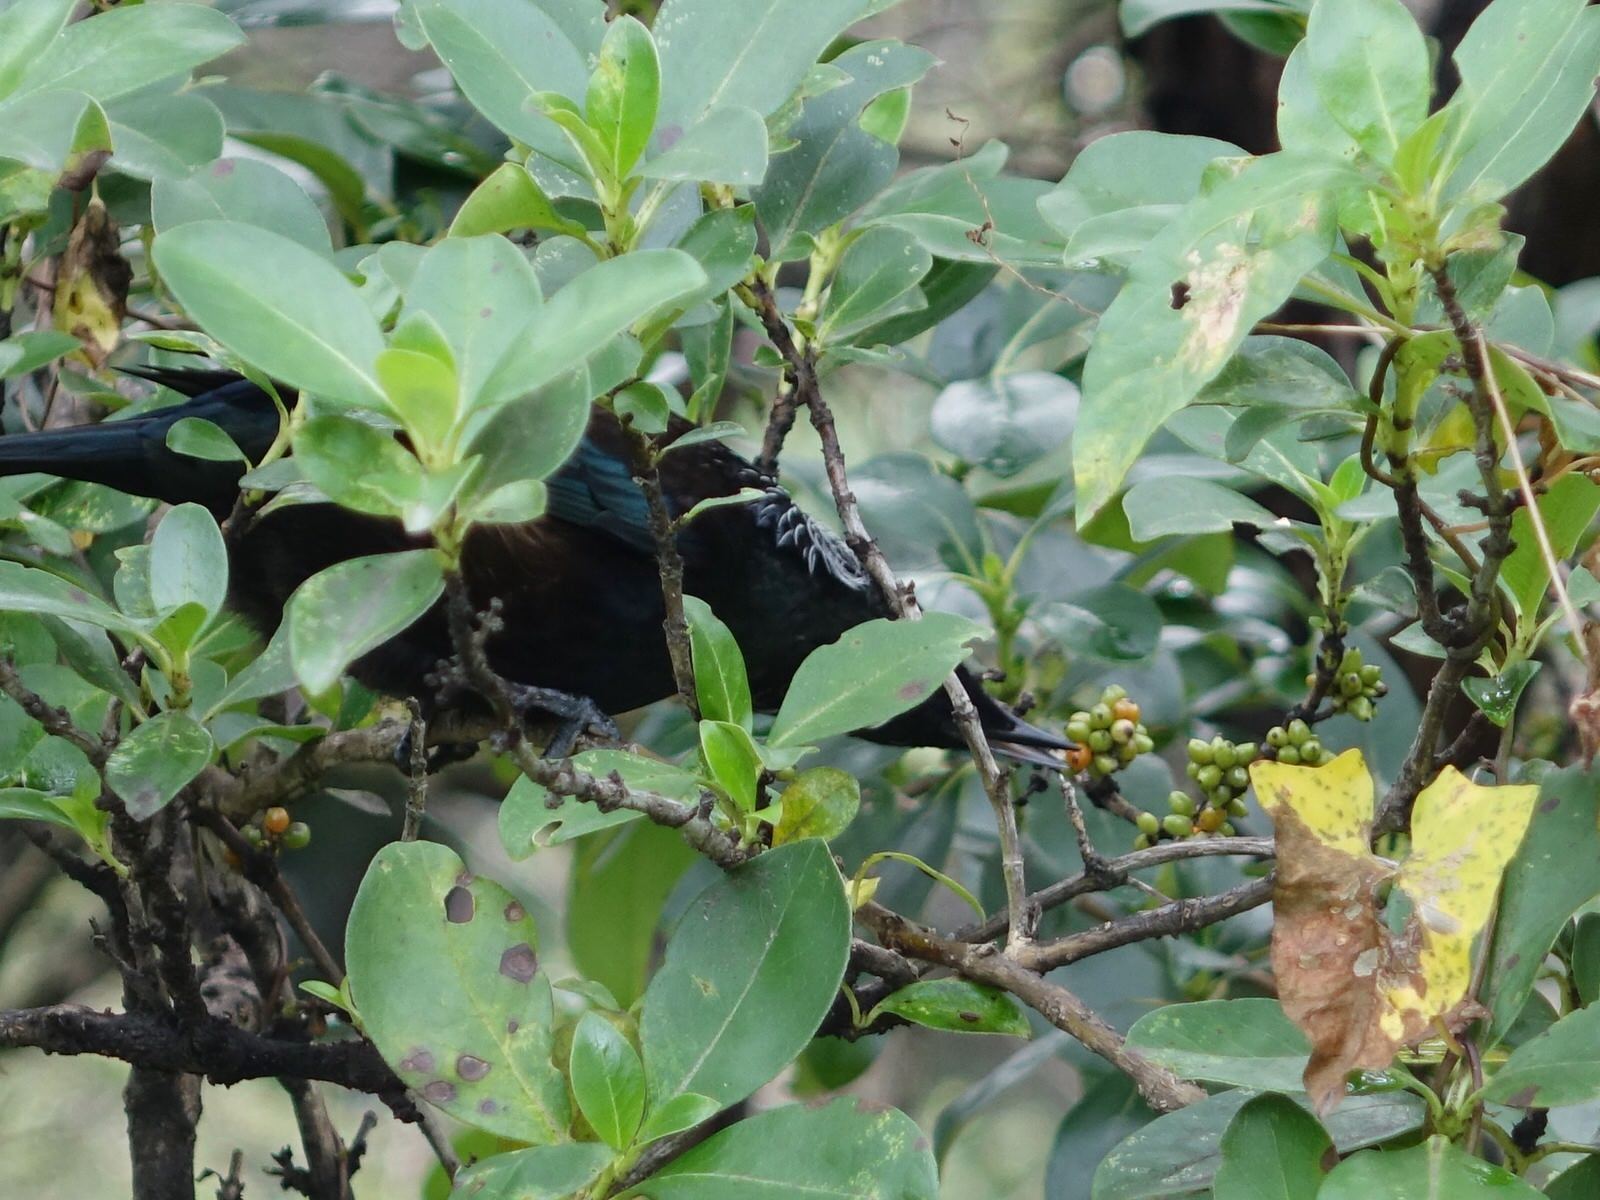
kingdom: Animalia
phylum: Chordata
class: Aves
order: Passeriformes
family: Meliphagidae
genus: Prosthemadera
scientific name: Prosthemadera novaeseelandiae
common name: Tui
